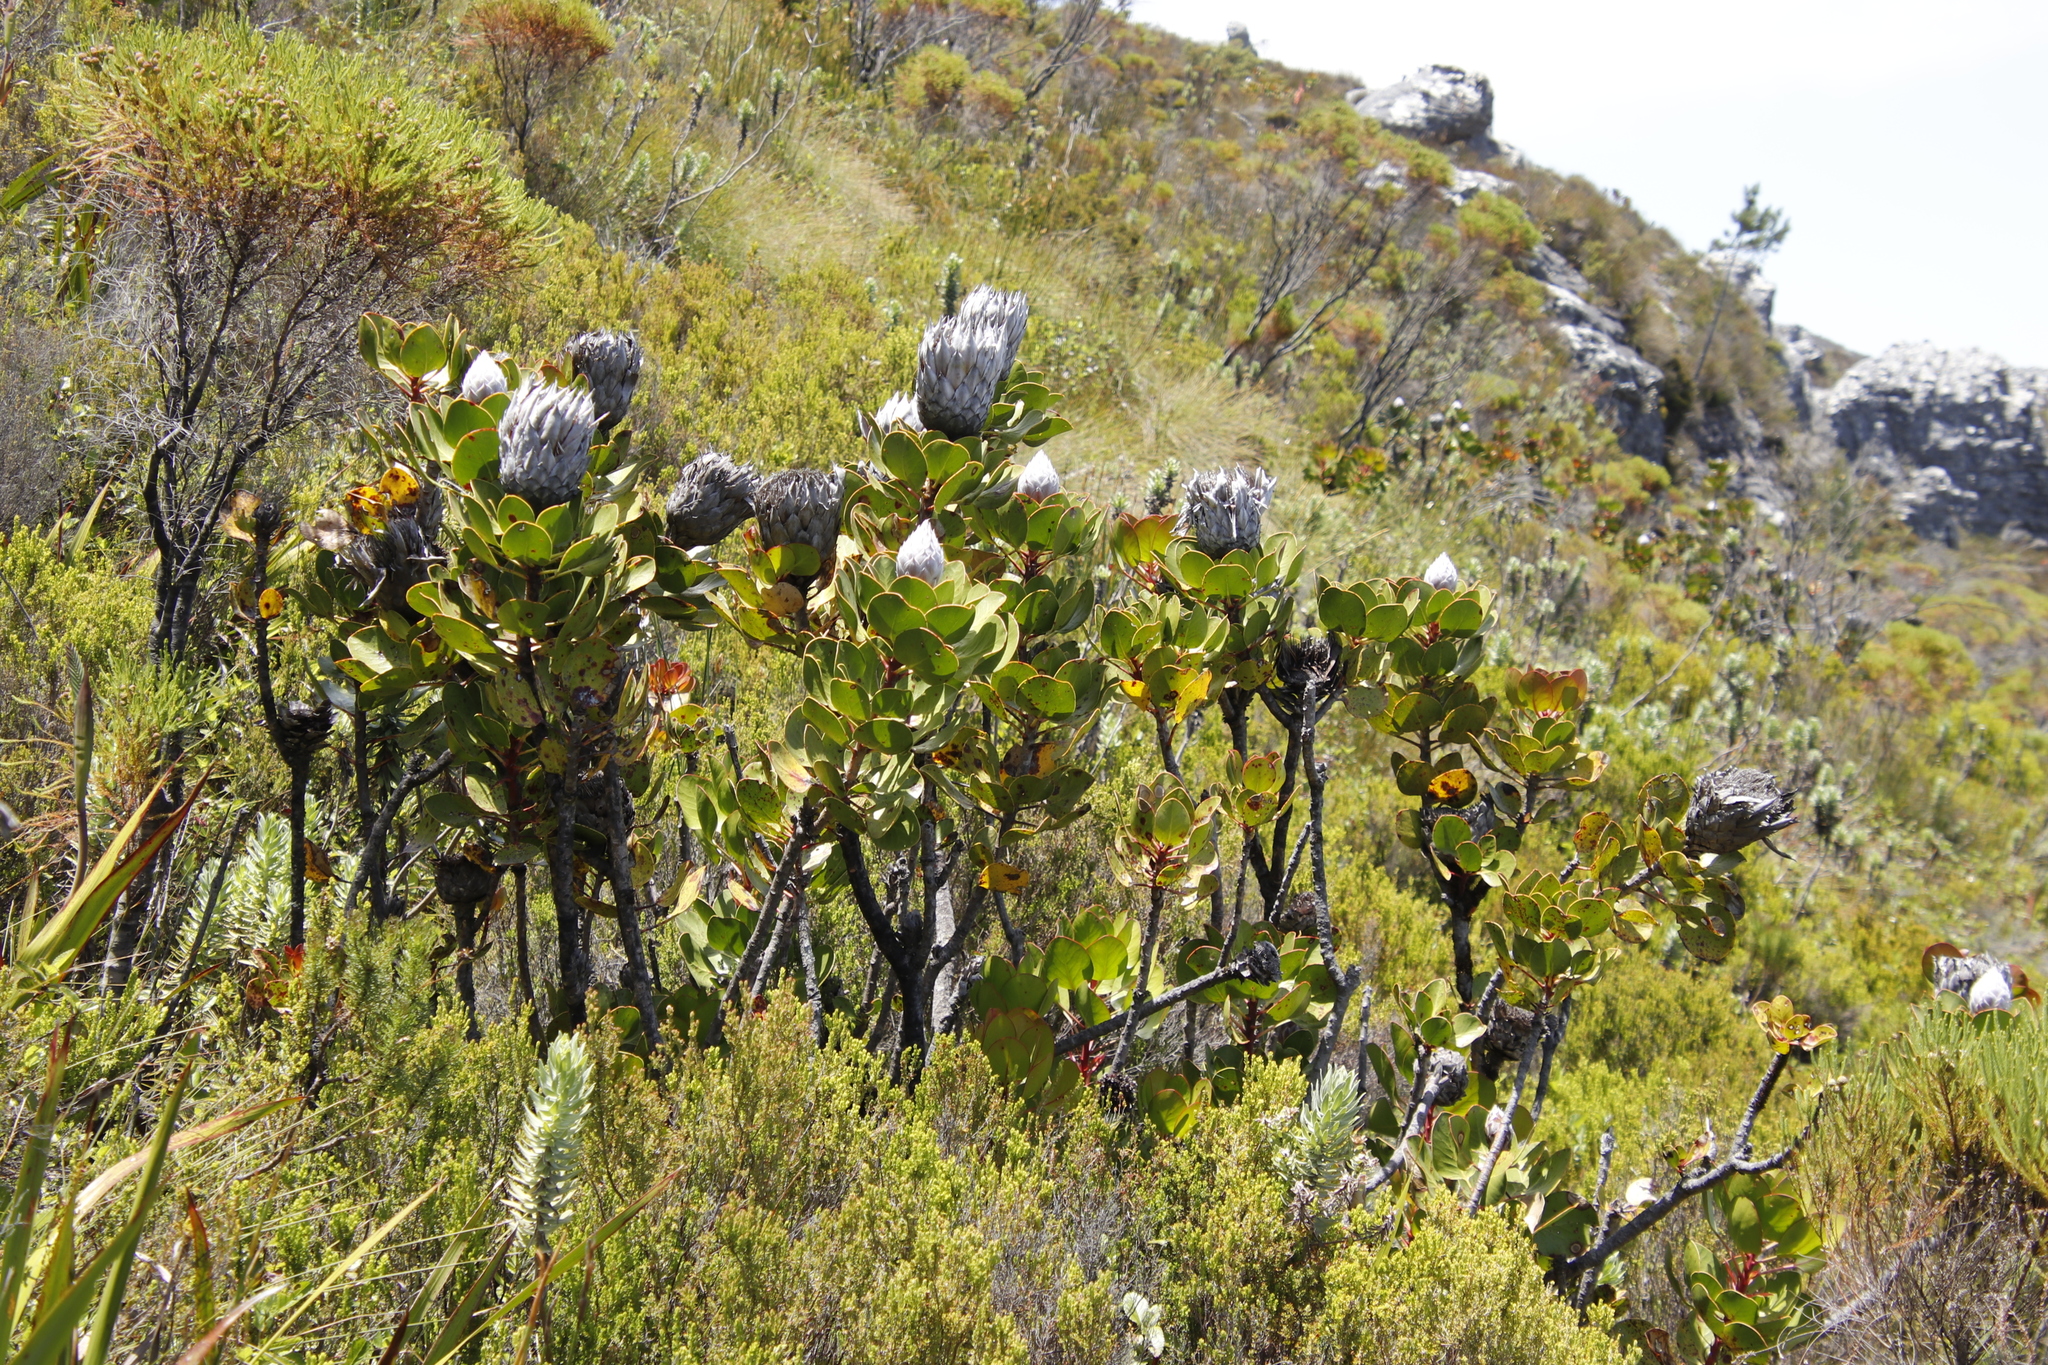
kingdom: Plantae
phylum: Tracheophyta
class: Magnoliopsida
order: Proteales
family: Proteaceae
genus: Protea
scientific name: Protea cynaroides
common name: King protea
